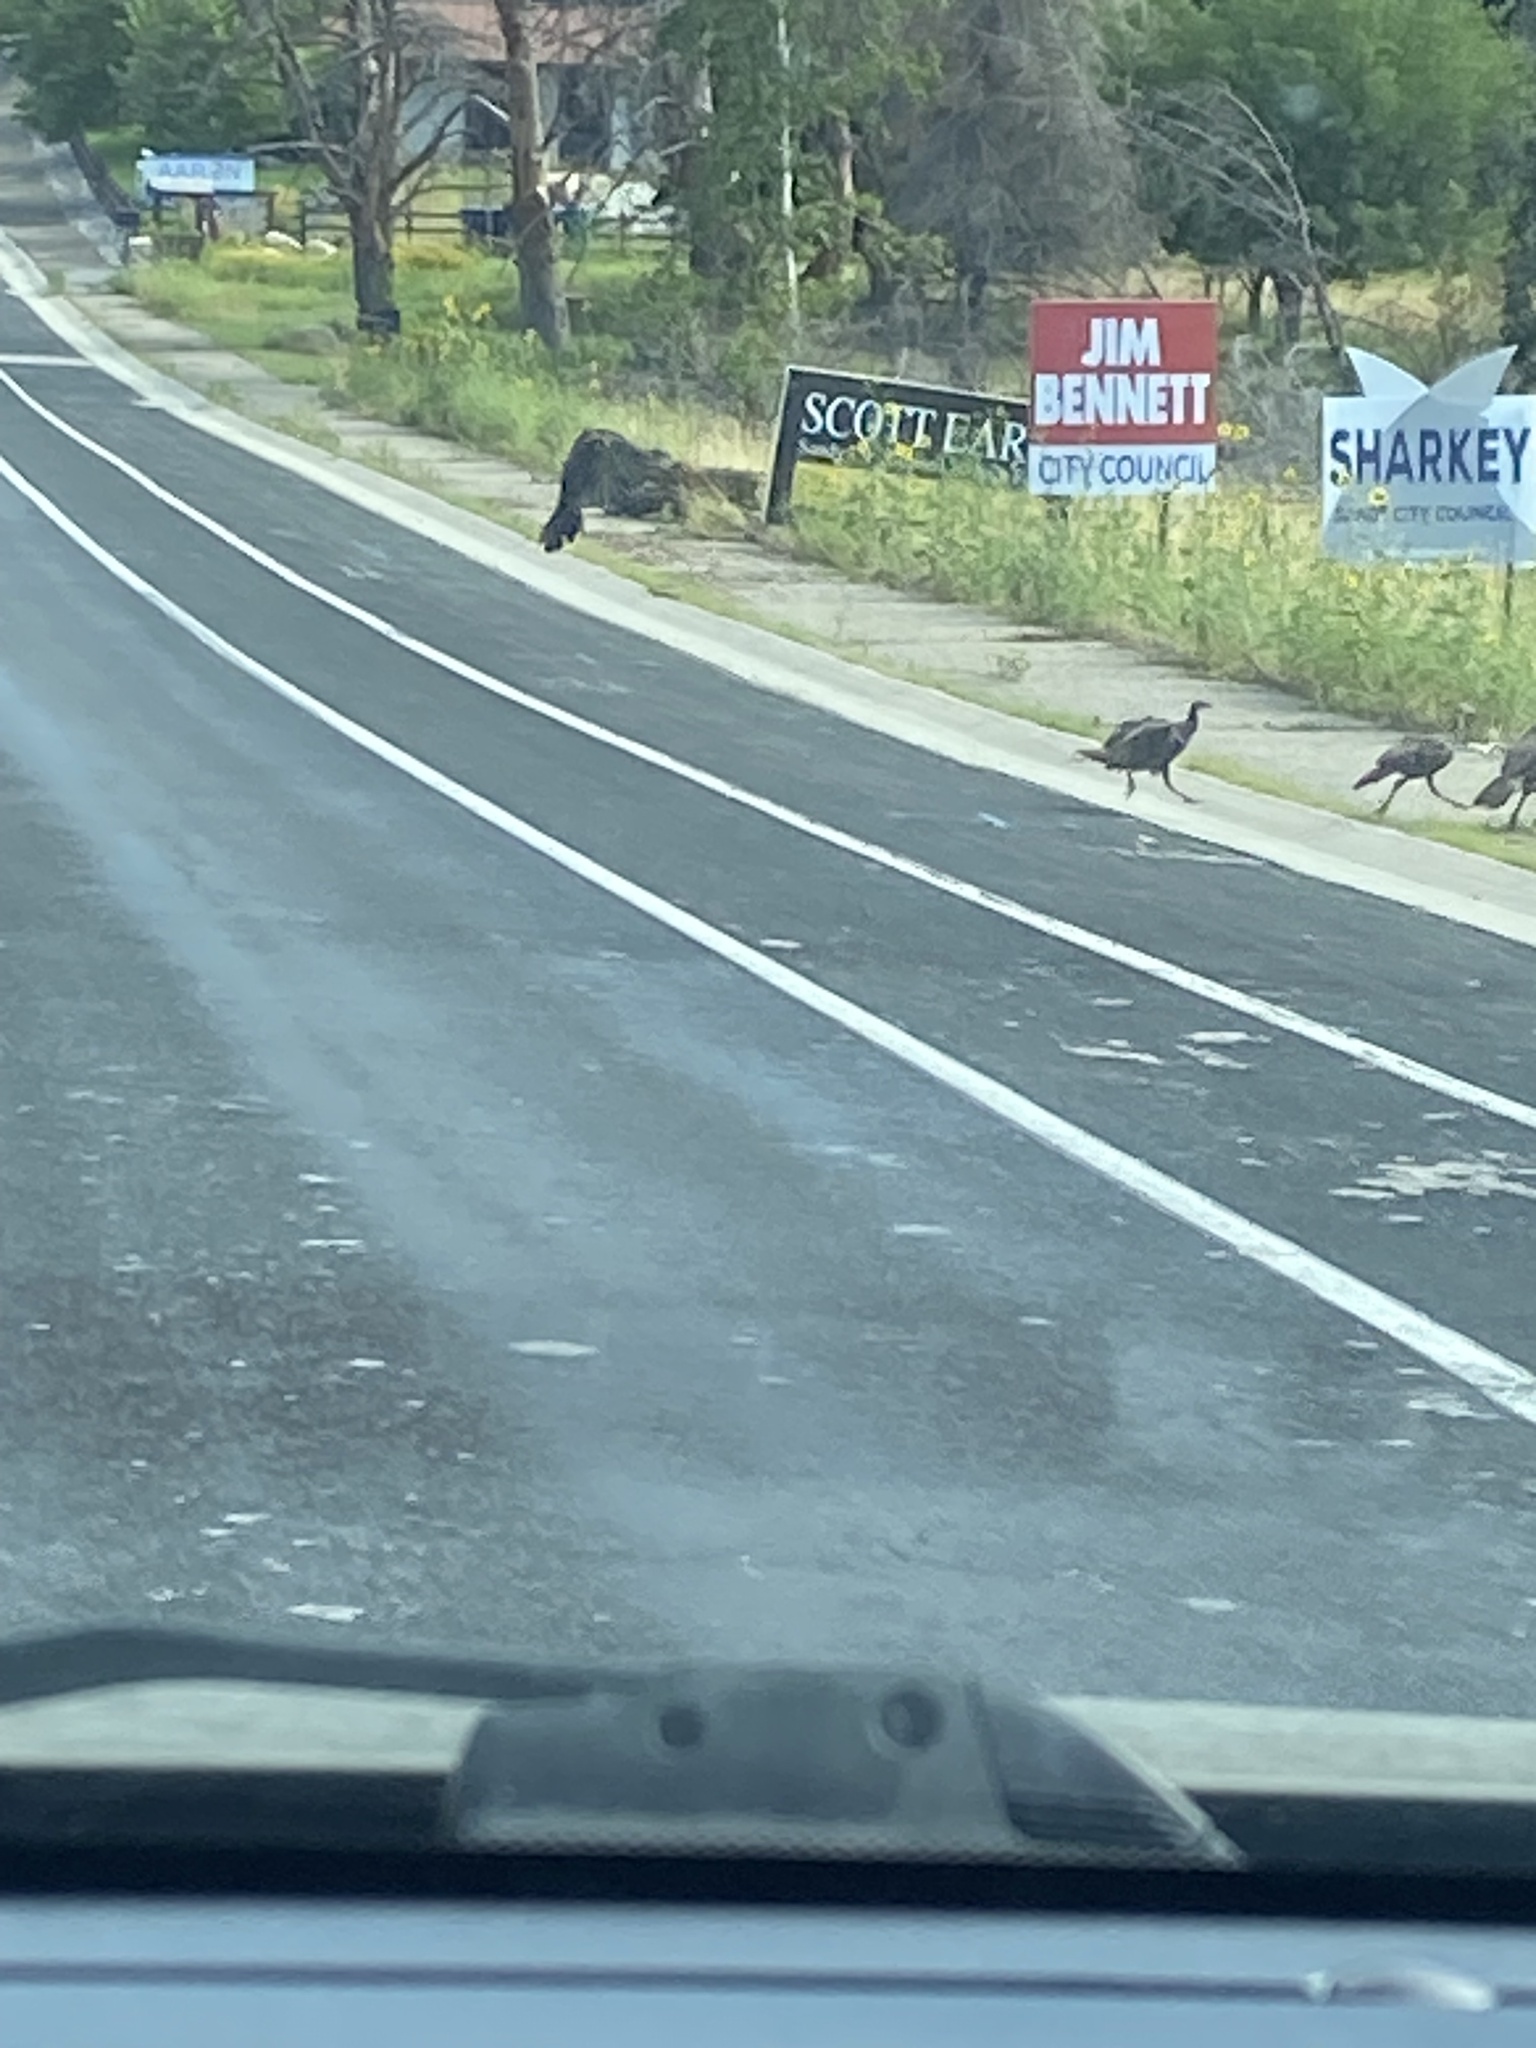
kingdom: Animalia
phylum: Chordata
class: Aves
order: Galliformes
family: Phasianidae
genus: Meleagris
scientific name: Meleagris gallopavo
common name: Wild turkey
